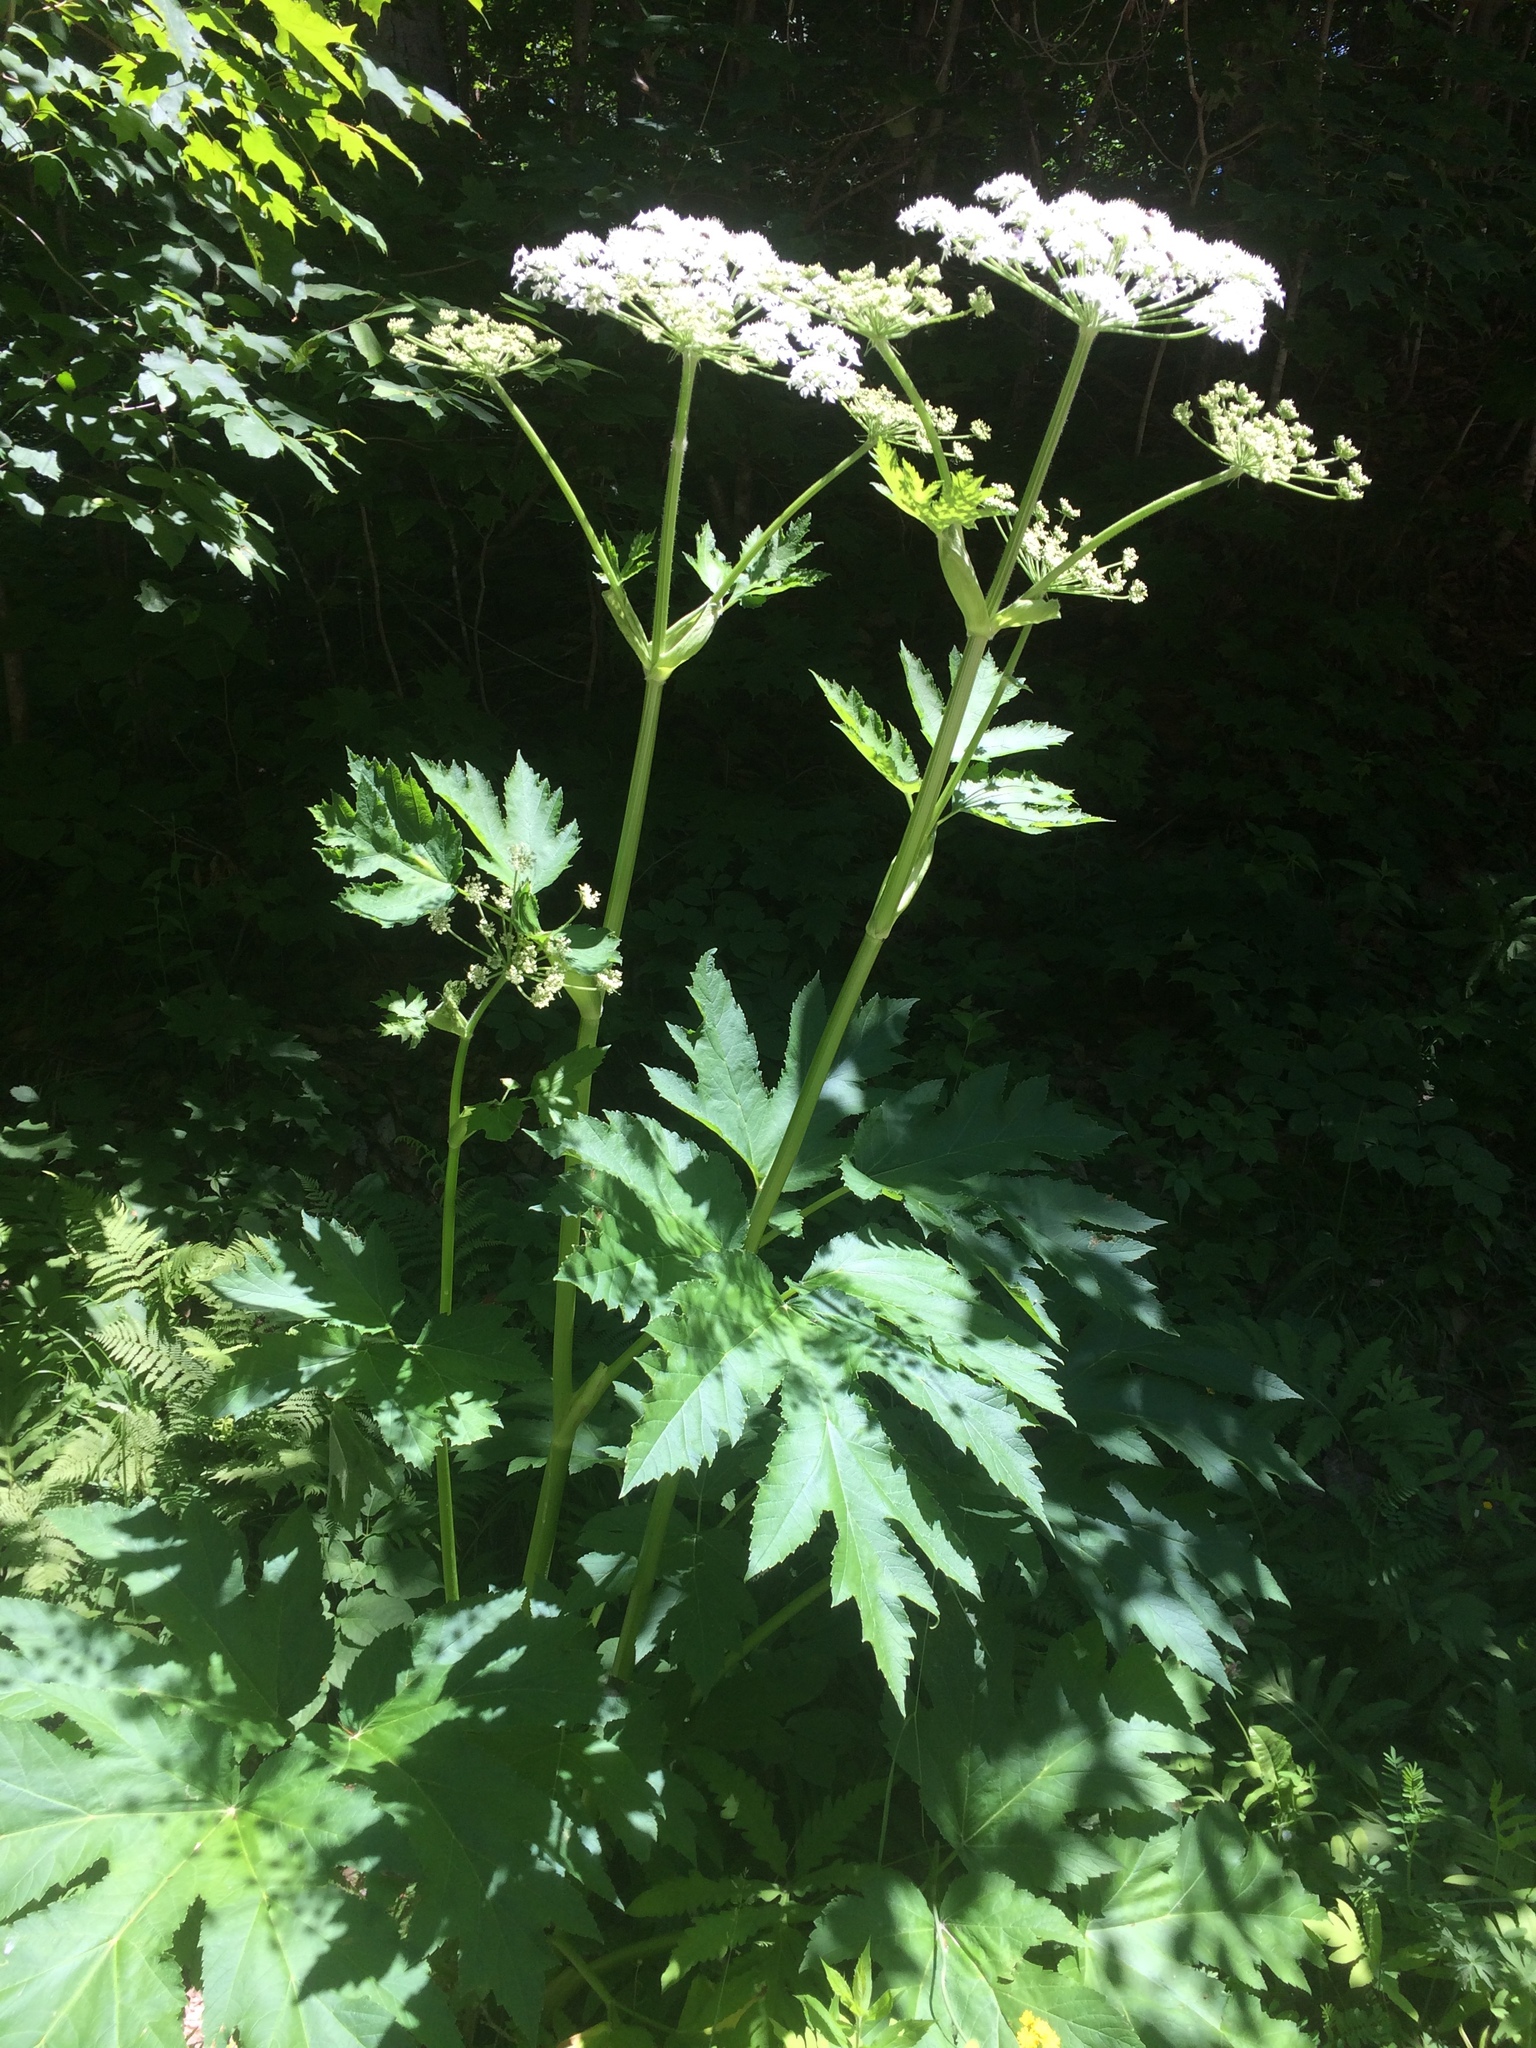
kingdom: Plantae
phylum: Tracheophyta
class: Magnoliopsida
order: Apiales
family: Apiaceae
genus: Heracleum
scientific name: Heracleum maximum
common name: American cow parsnip
